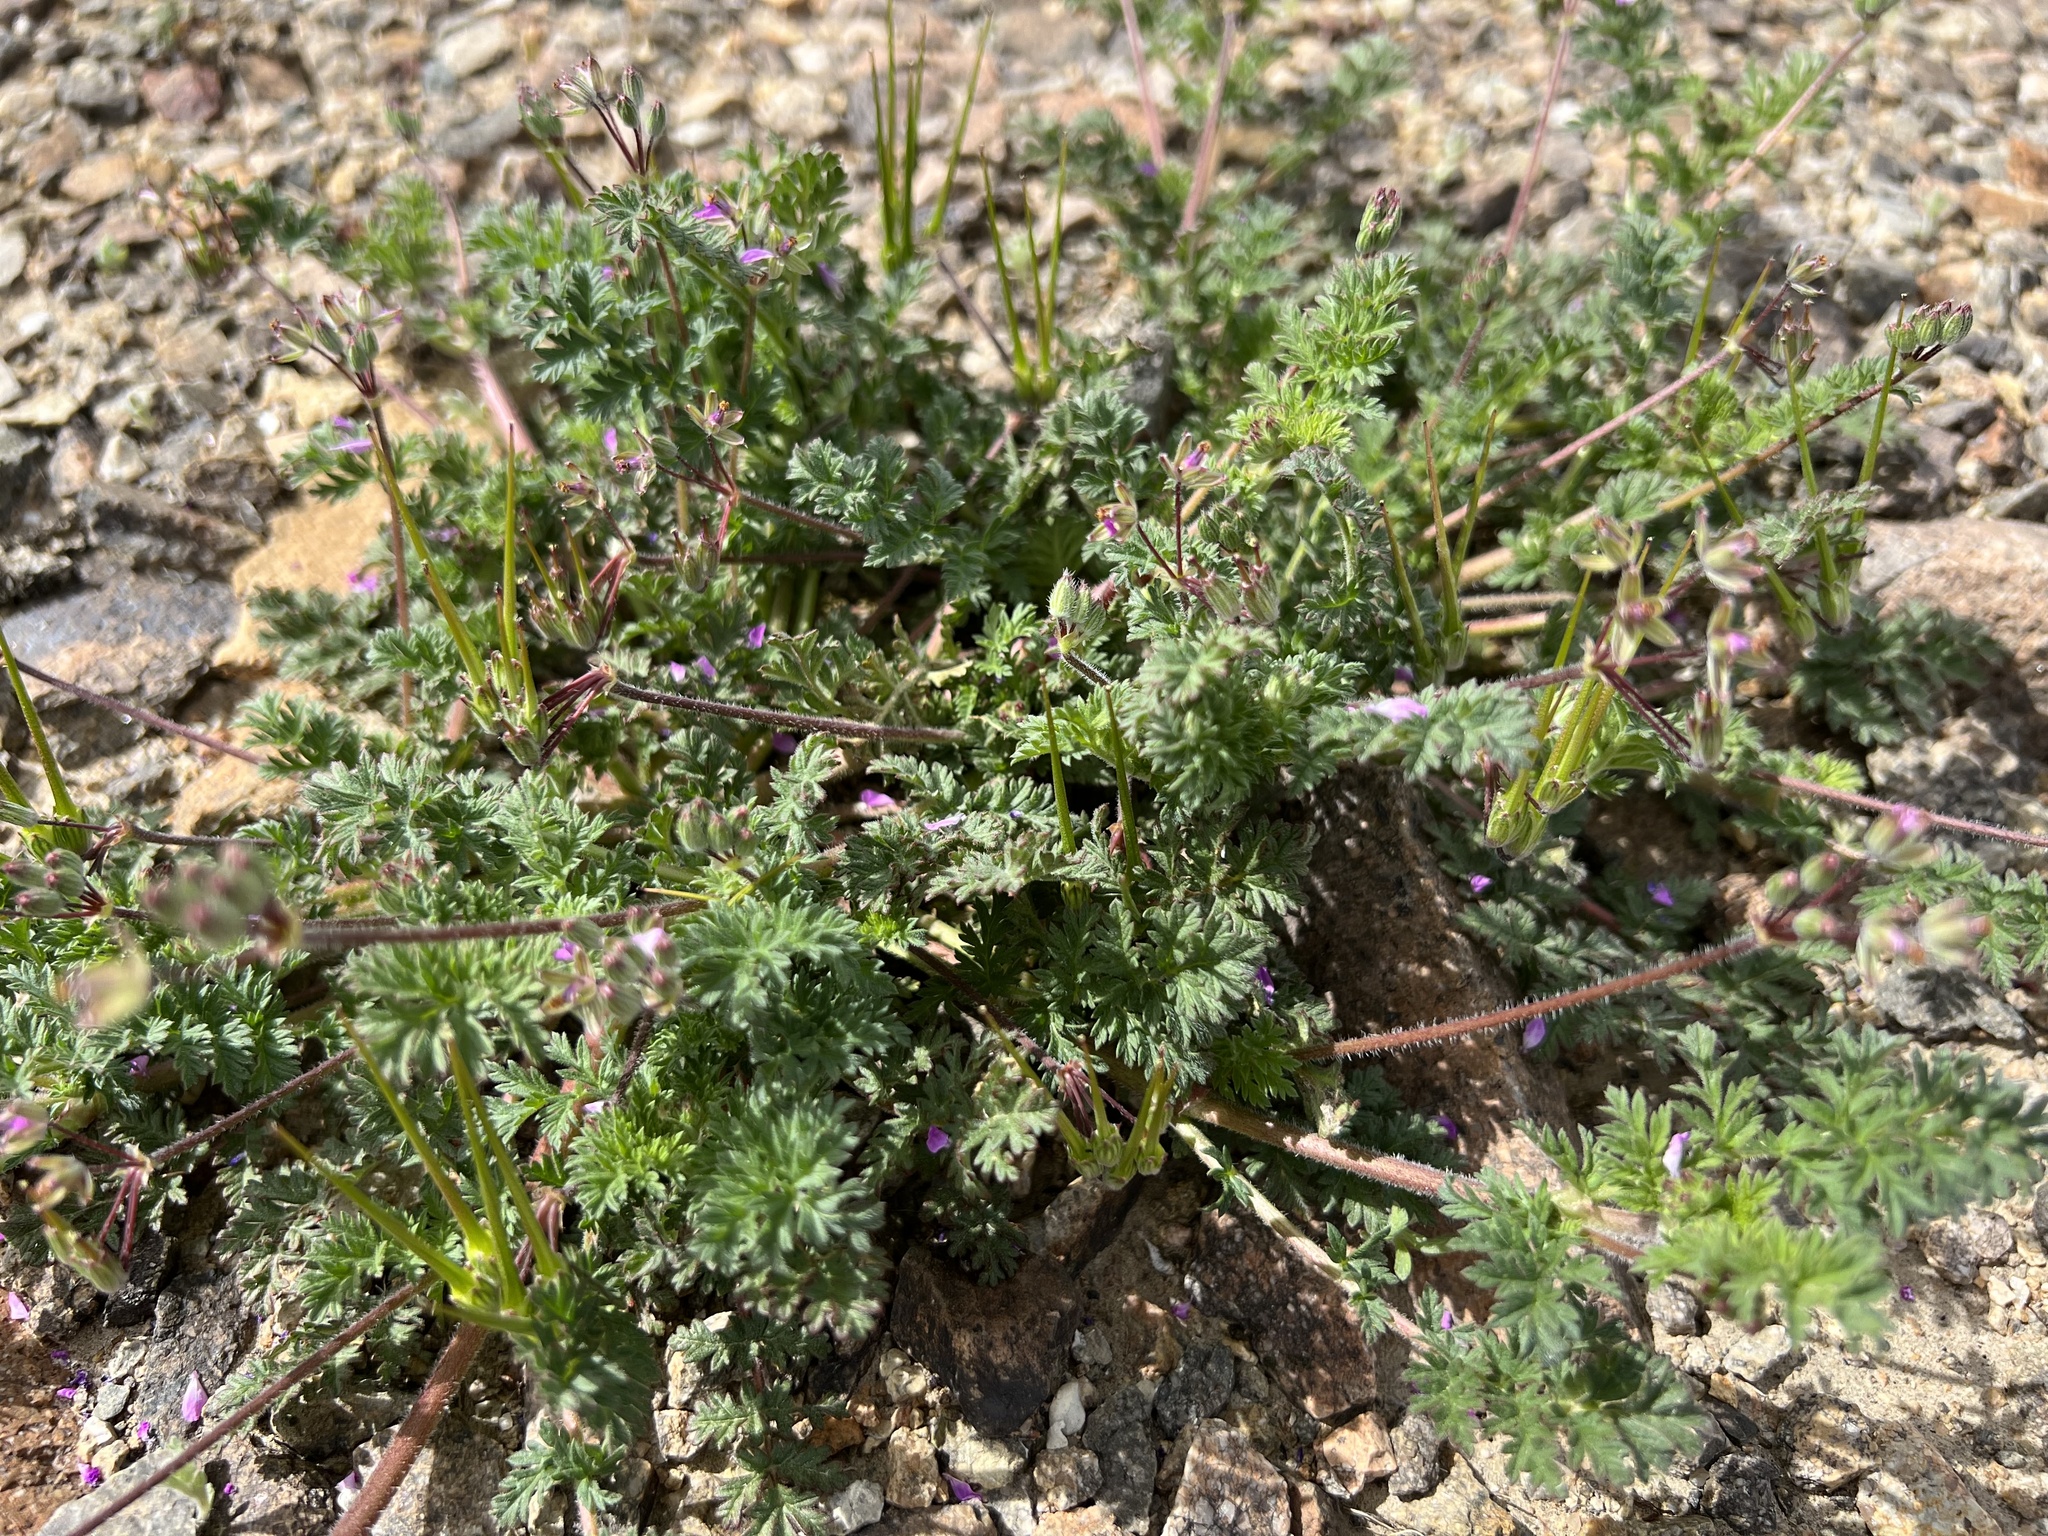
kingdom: Plantae
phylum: Tracheophyta
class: Magnoliopsida
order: Geraniales
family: Geraniaceae
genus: Erodium
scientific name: Erodium cicutarium
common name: Common stork's-bill
